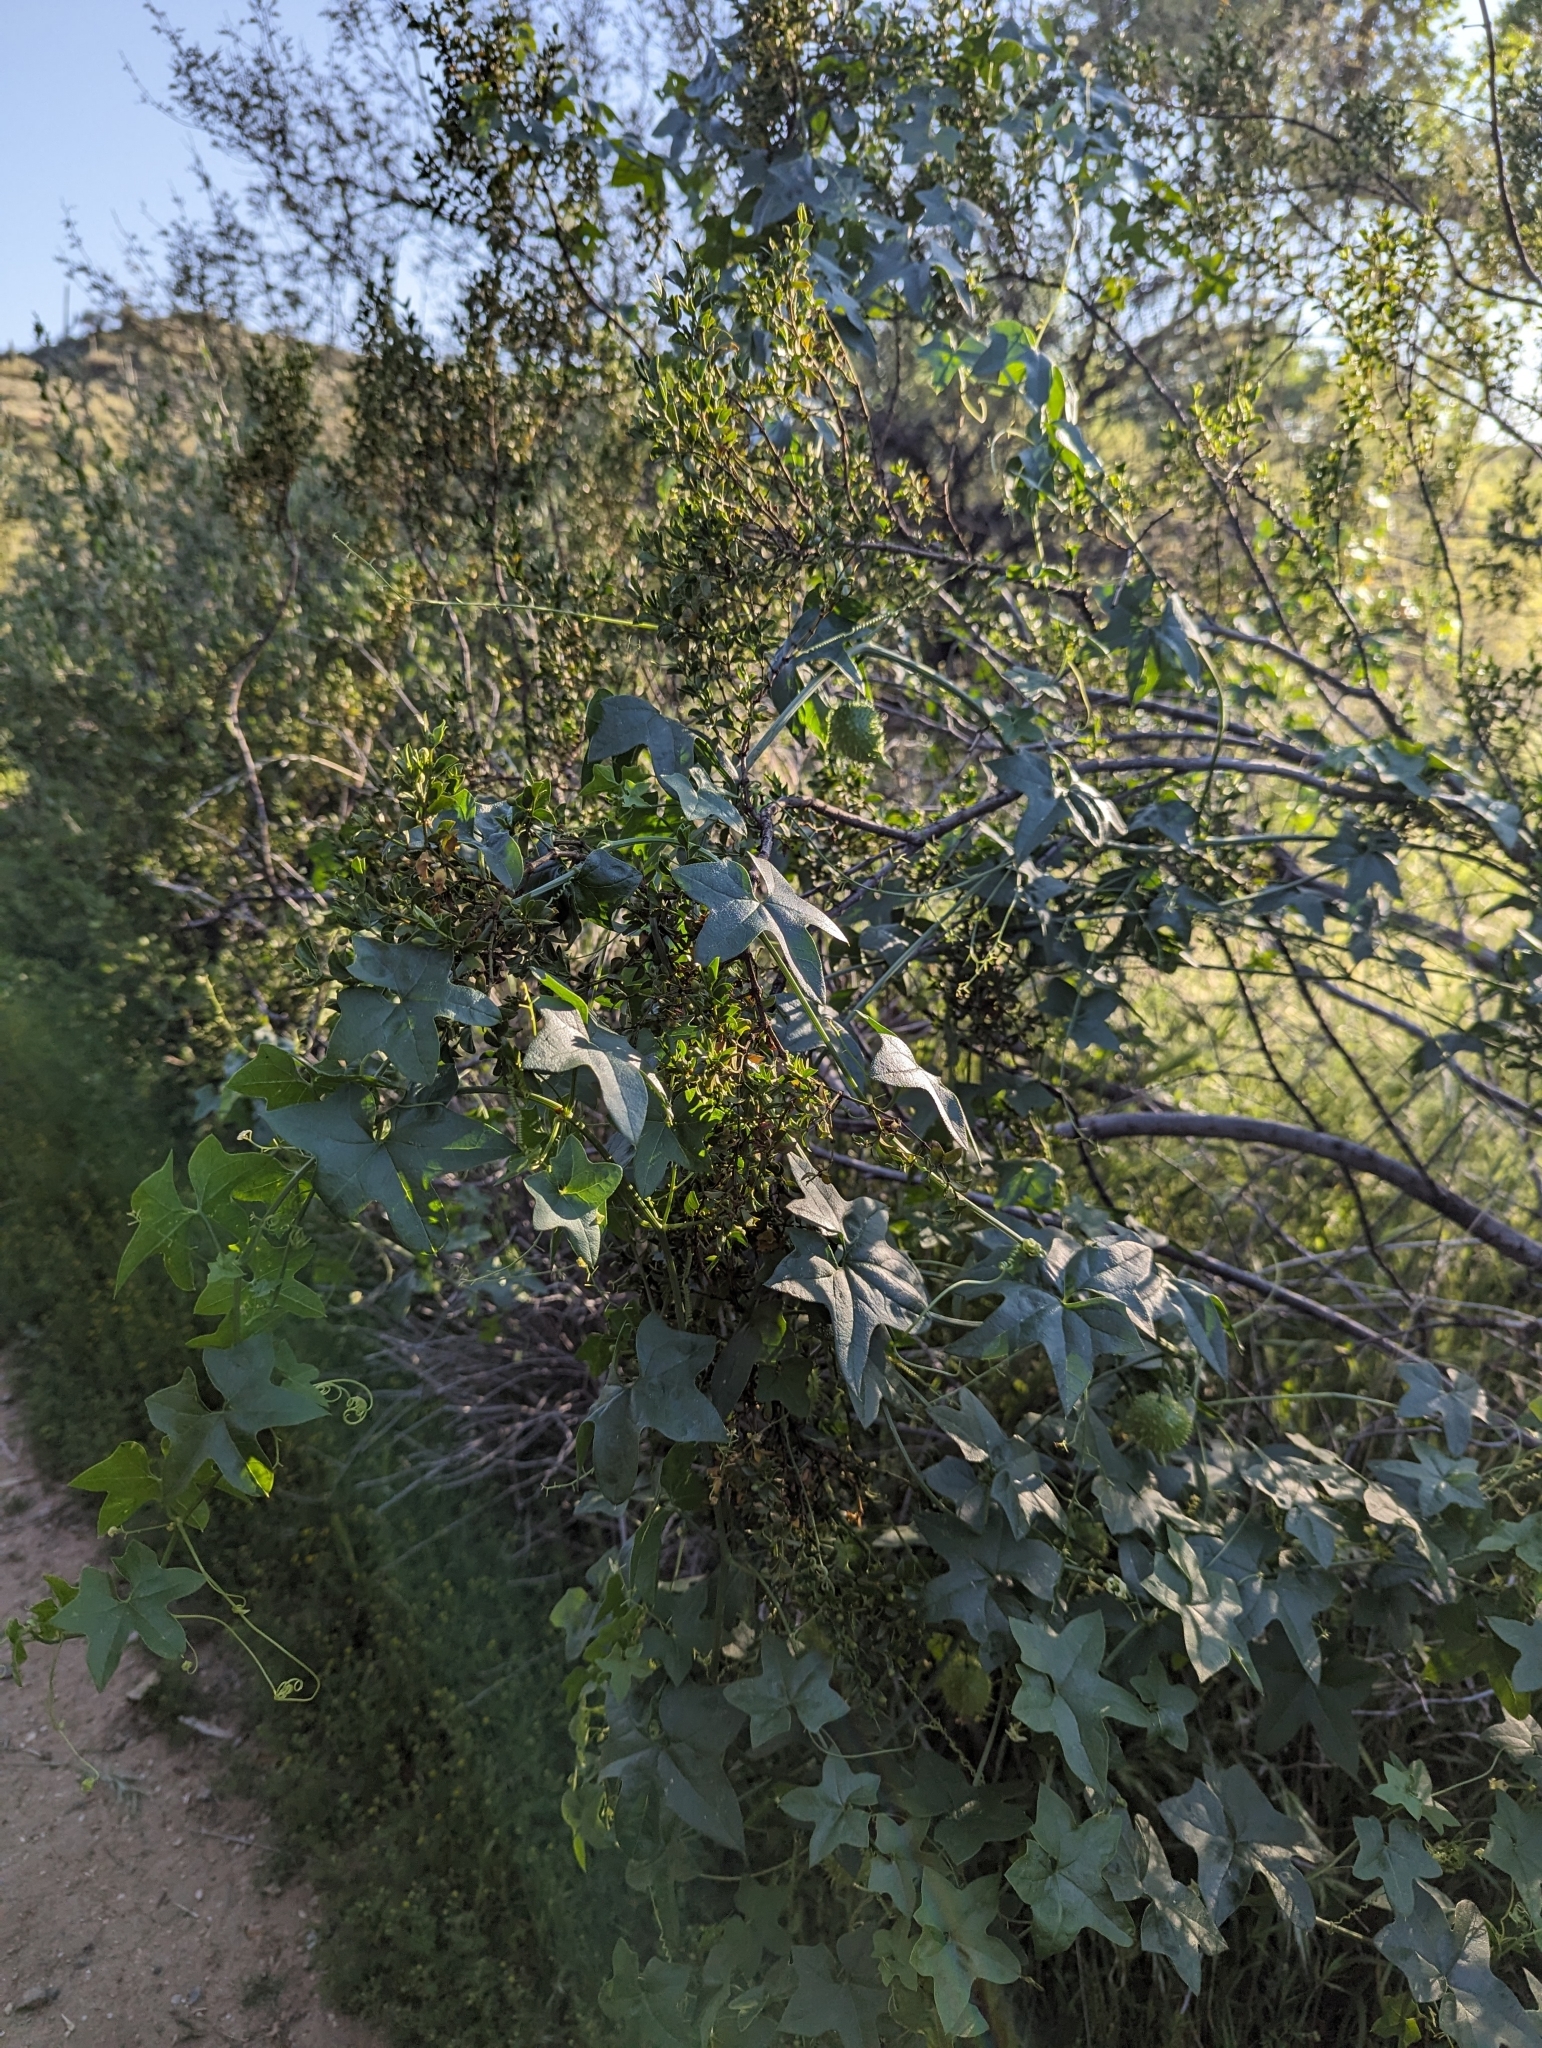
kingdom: Plantae
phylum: Tracheophyta
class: Magnoliopsida
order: Cucurbitales
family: Cucurbitaceae
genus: Marah
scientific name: Marah gilensis
